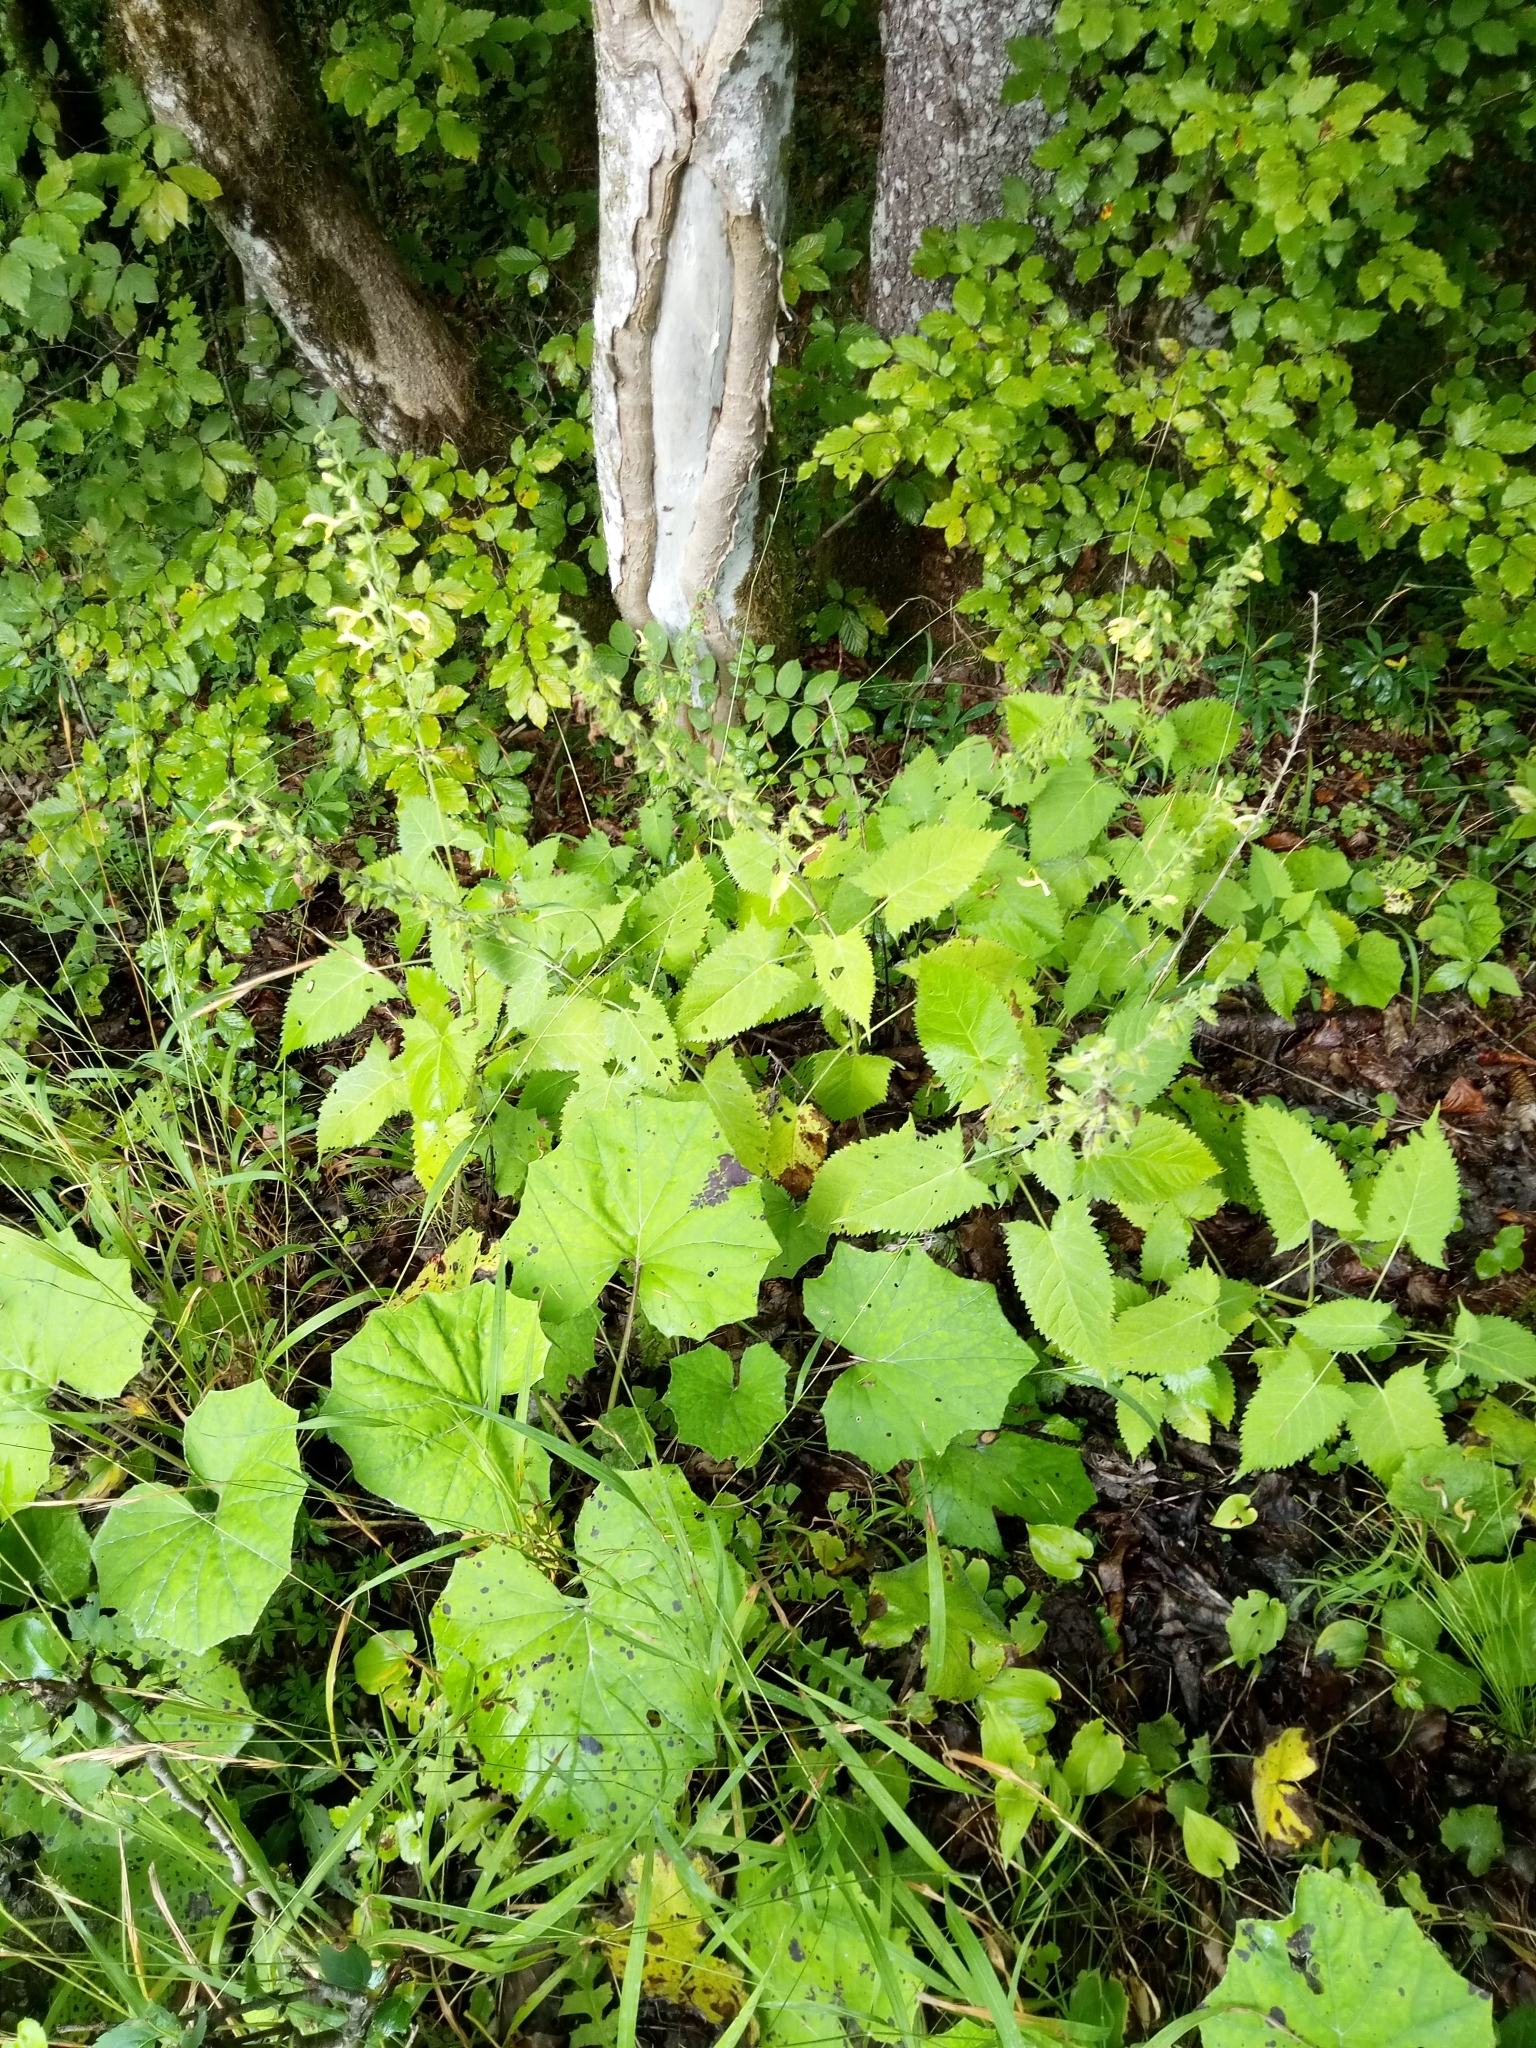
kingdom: Plantae
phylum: Tracheophyta
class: Magnoliopsida
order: Lamiales
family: Lamiaceae
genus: Salvia
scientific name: Salvia glutinosa
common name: Sticky clary
